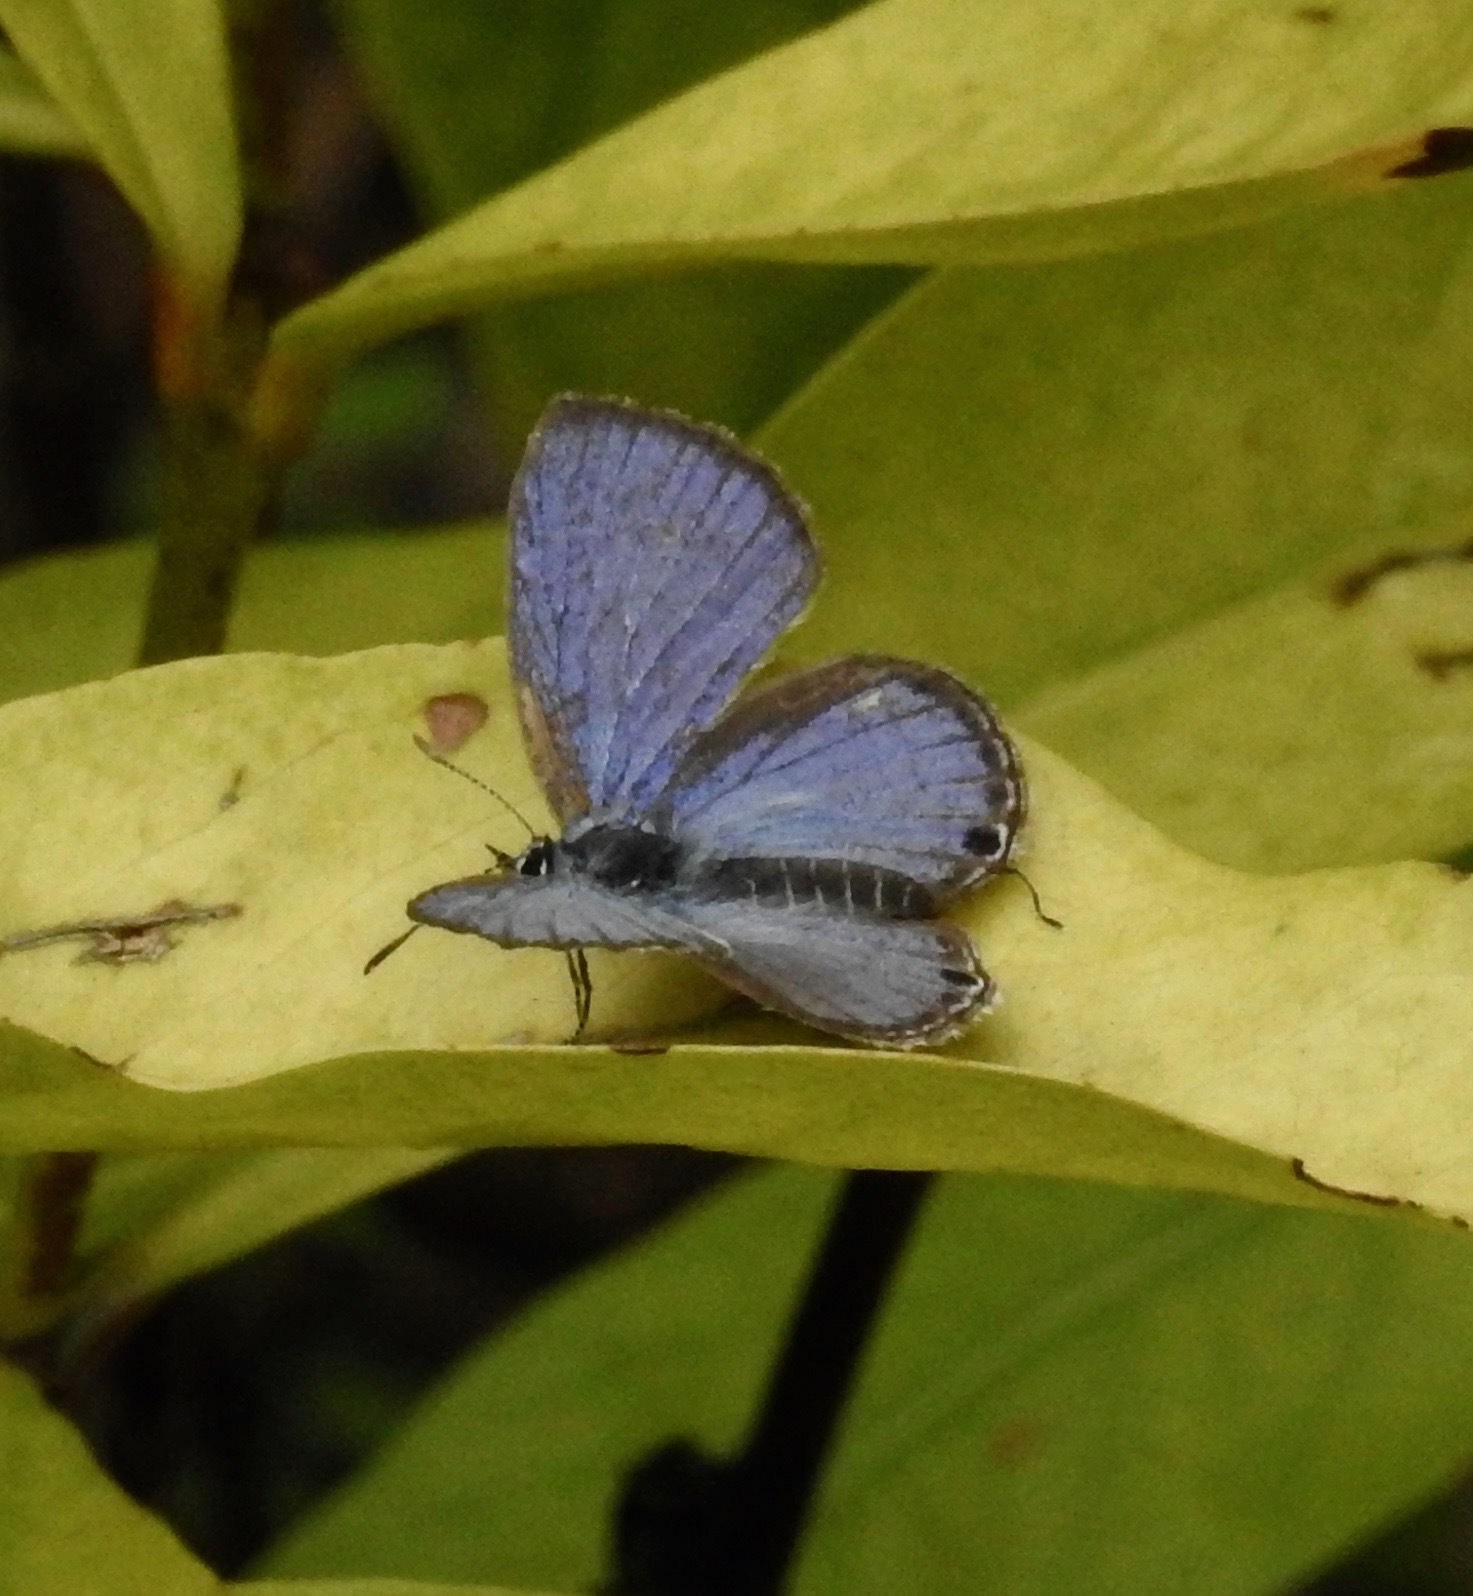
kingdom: Animalia
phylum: Arthropoda
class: Insecta
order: Lepidoptera
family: Lycaenidae
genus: Luthrodes
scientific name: Luthrodes pandava
